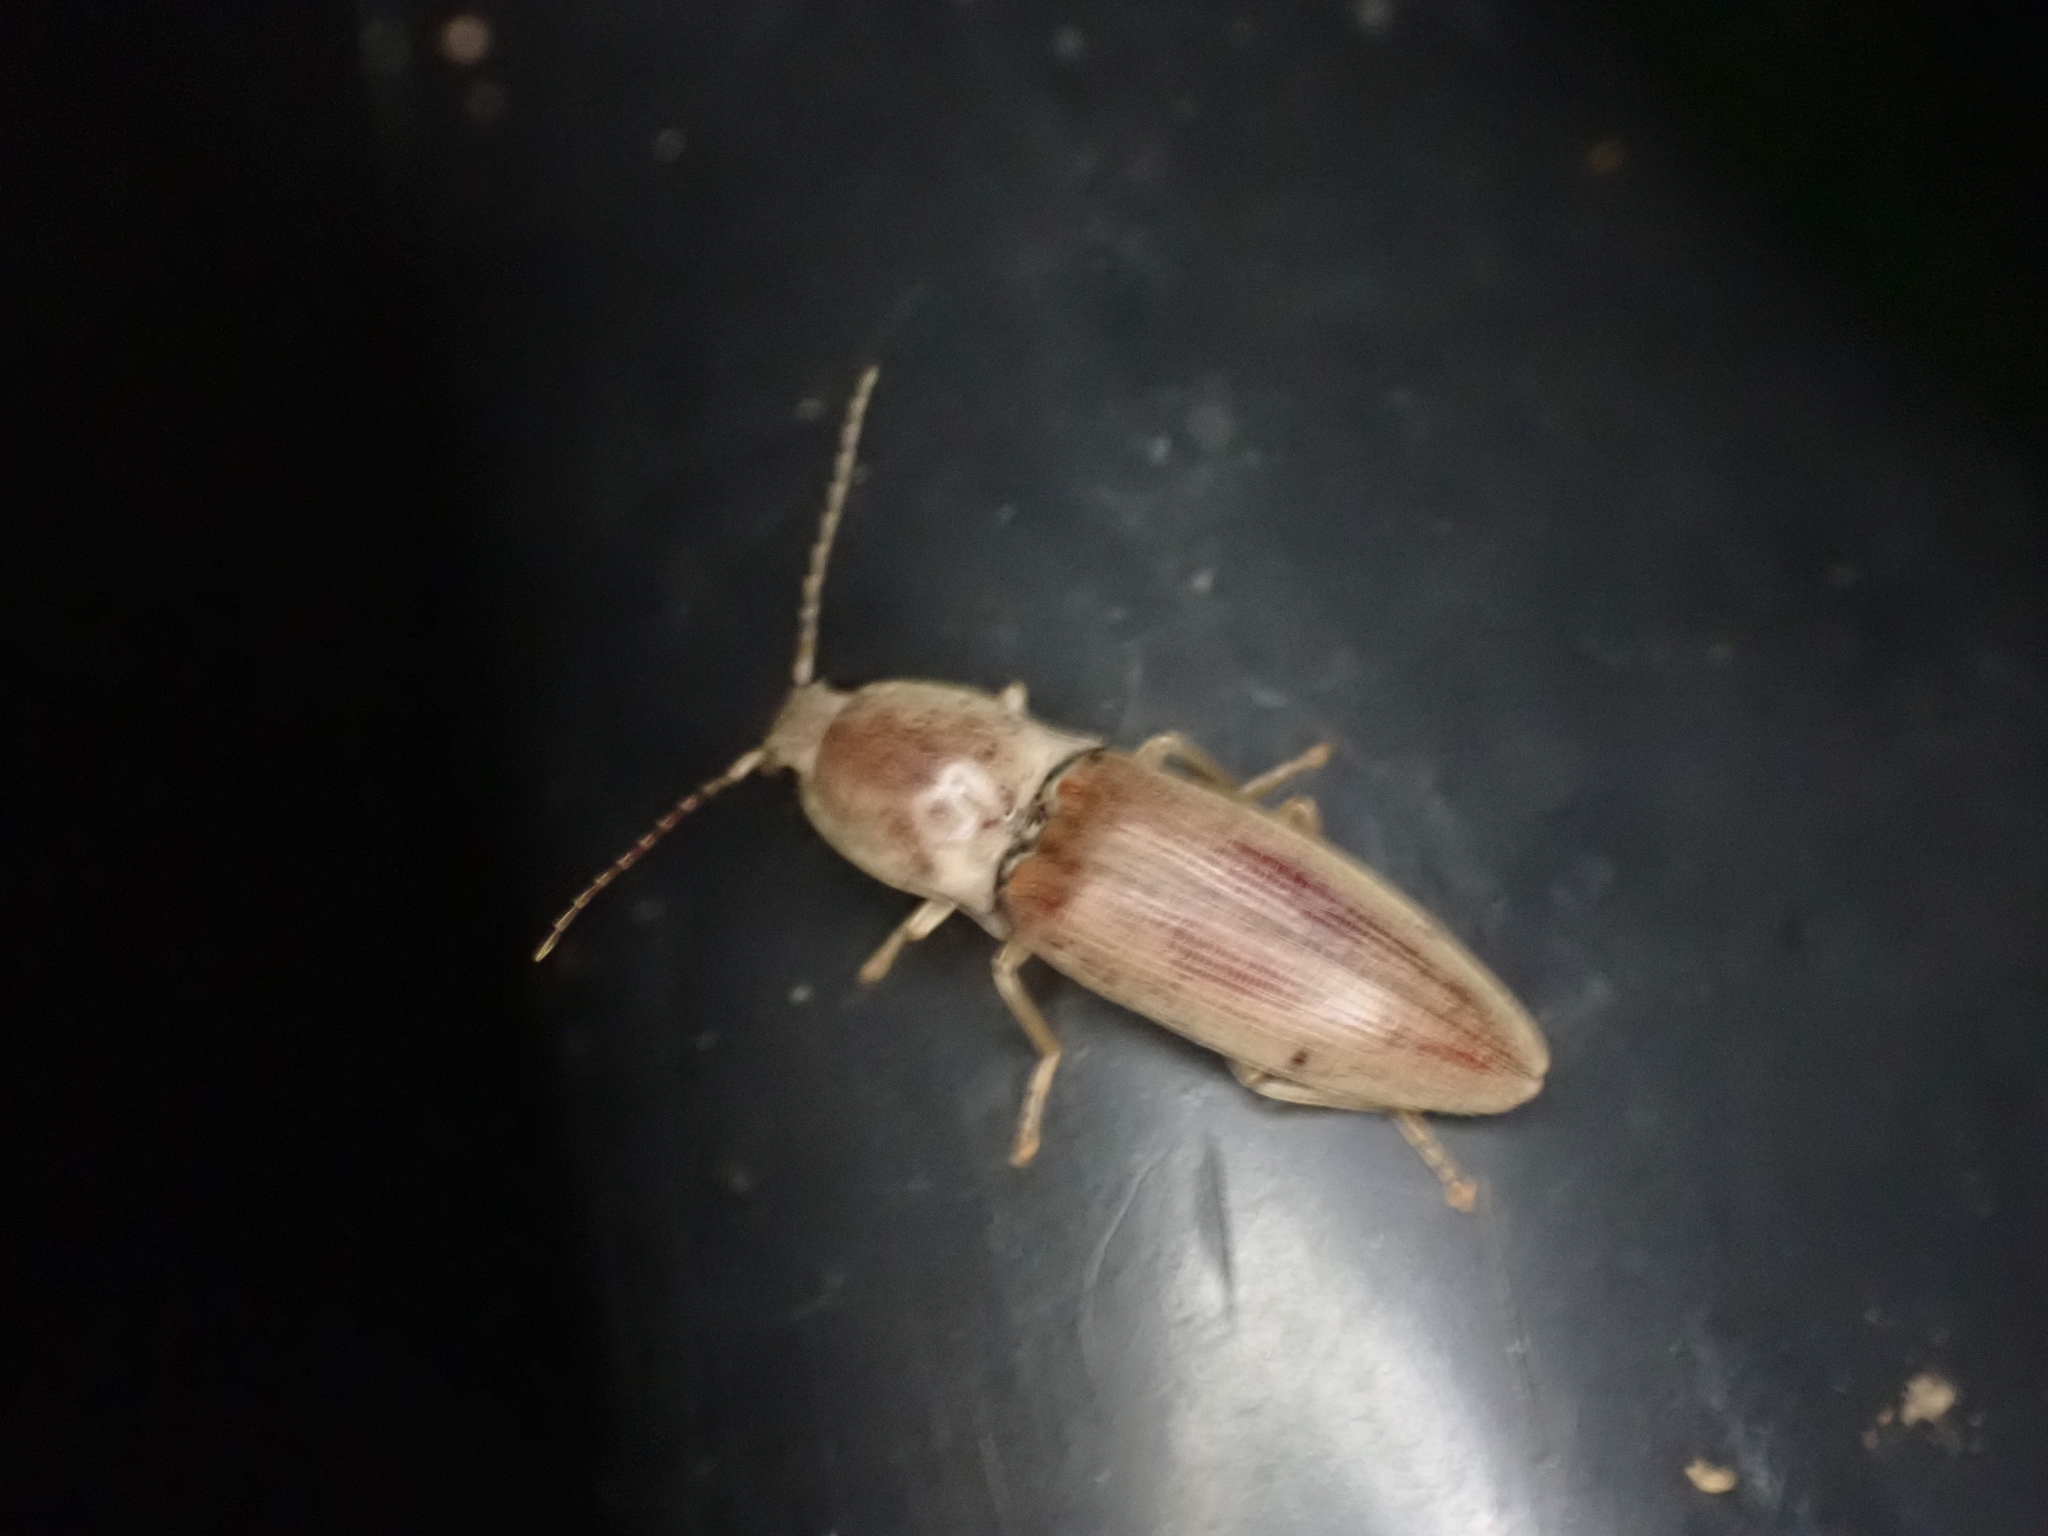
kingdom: Animalia
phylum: Arthropoda
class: Insecta
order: Coleoptera
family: Elateridae
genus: Monocrepidius
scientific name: Monocrepidius lividus
